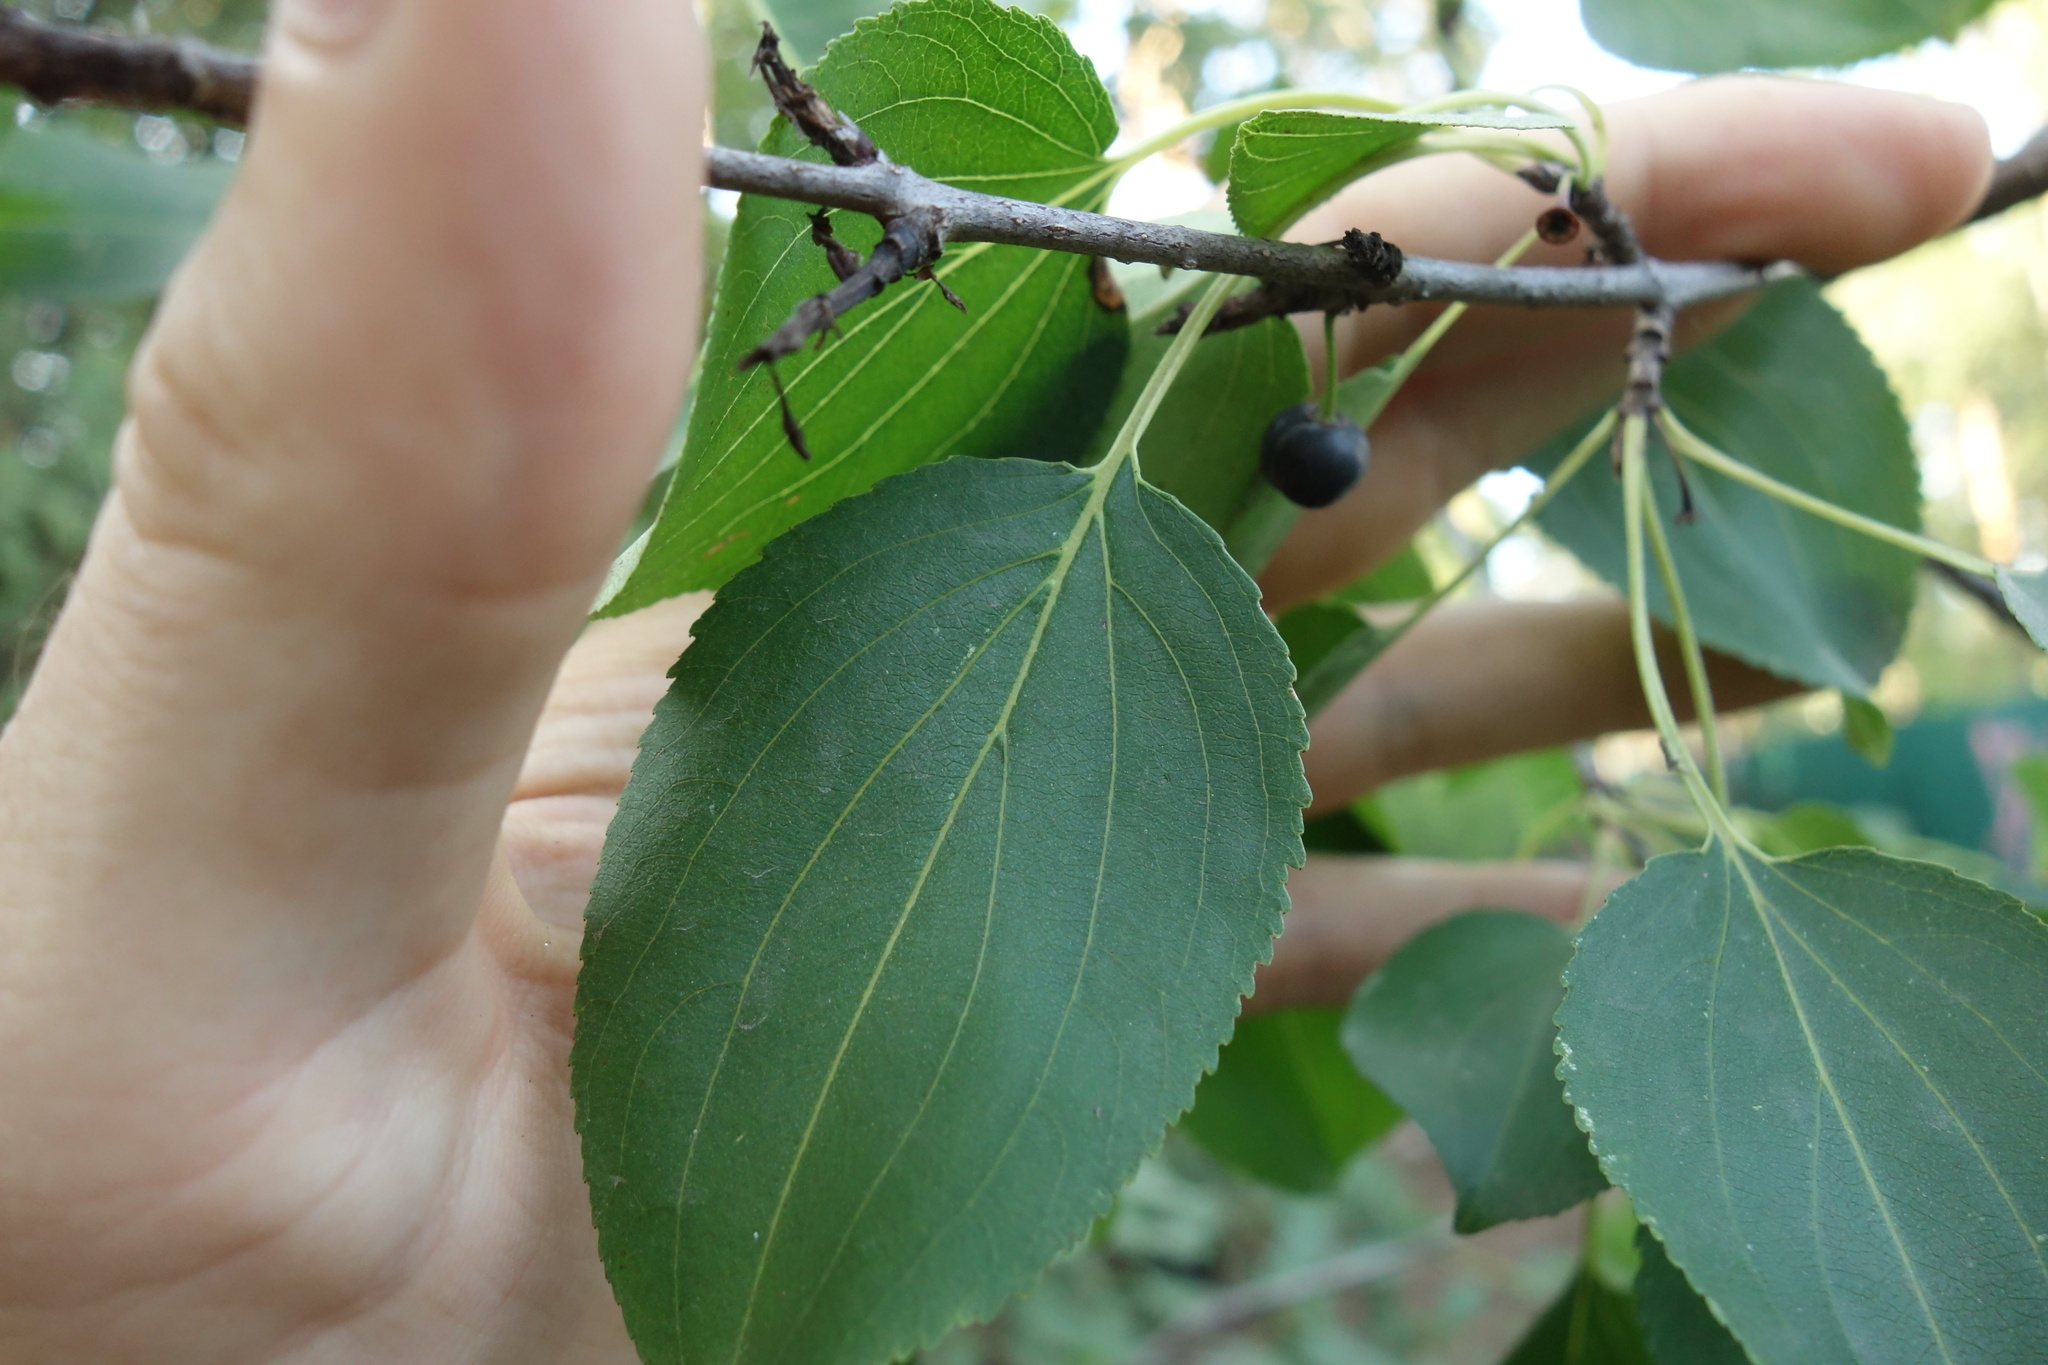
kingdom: Plantae
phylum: Tracheophyta
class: Magnoliopsida
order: Rosales
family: Rhamnaceae
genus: Rhamnus
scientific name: Rhamnus cathartica
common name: Common buckthorn
